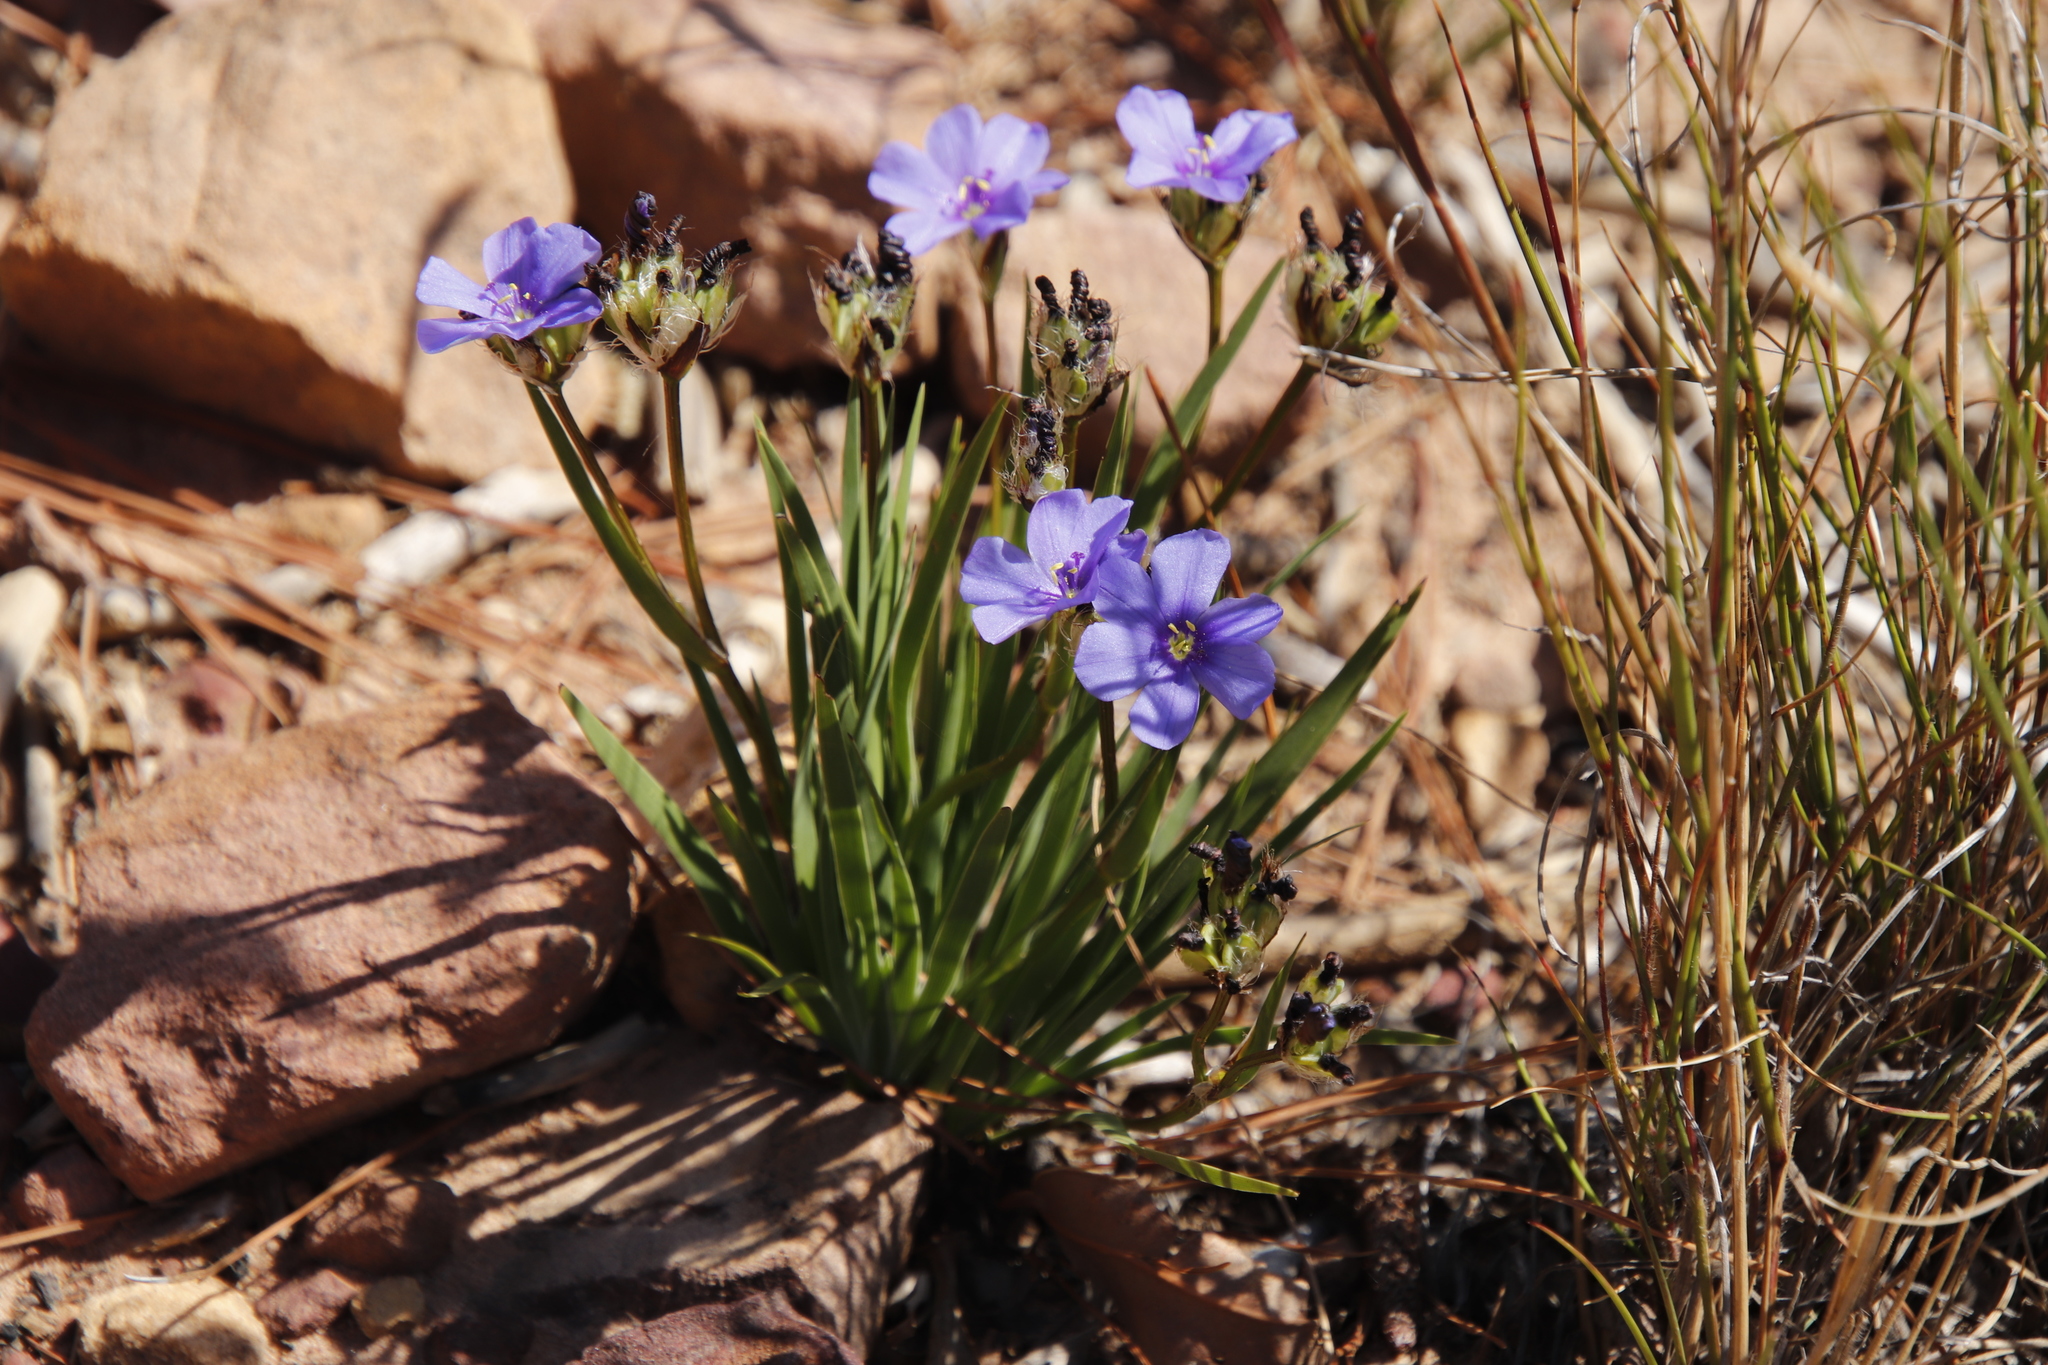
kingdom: Plantae
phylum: Tracheophyta
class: Liliopsida
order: Asparagales
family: Iridaceae
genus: Aristea
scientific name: Aristea africana
